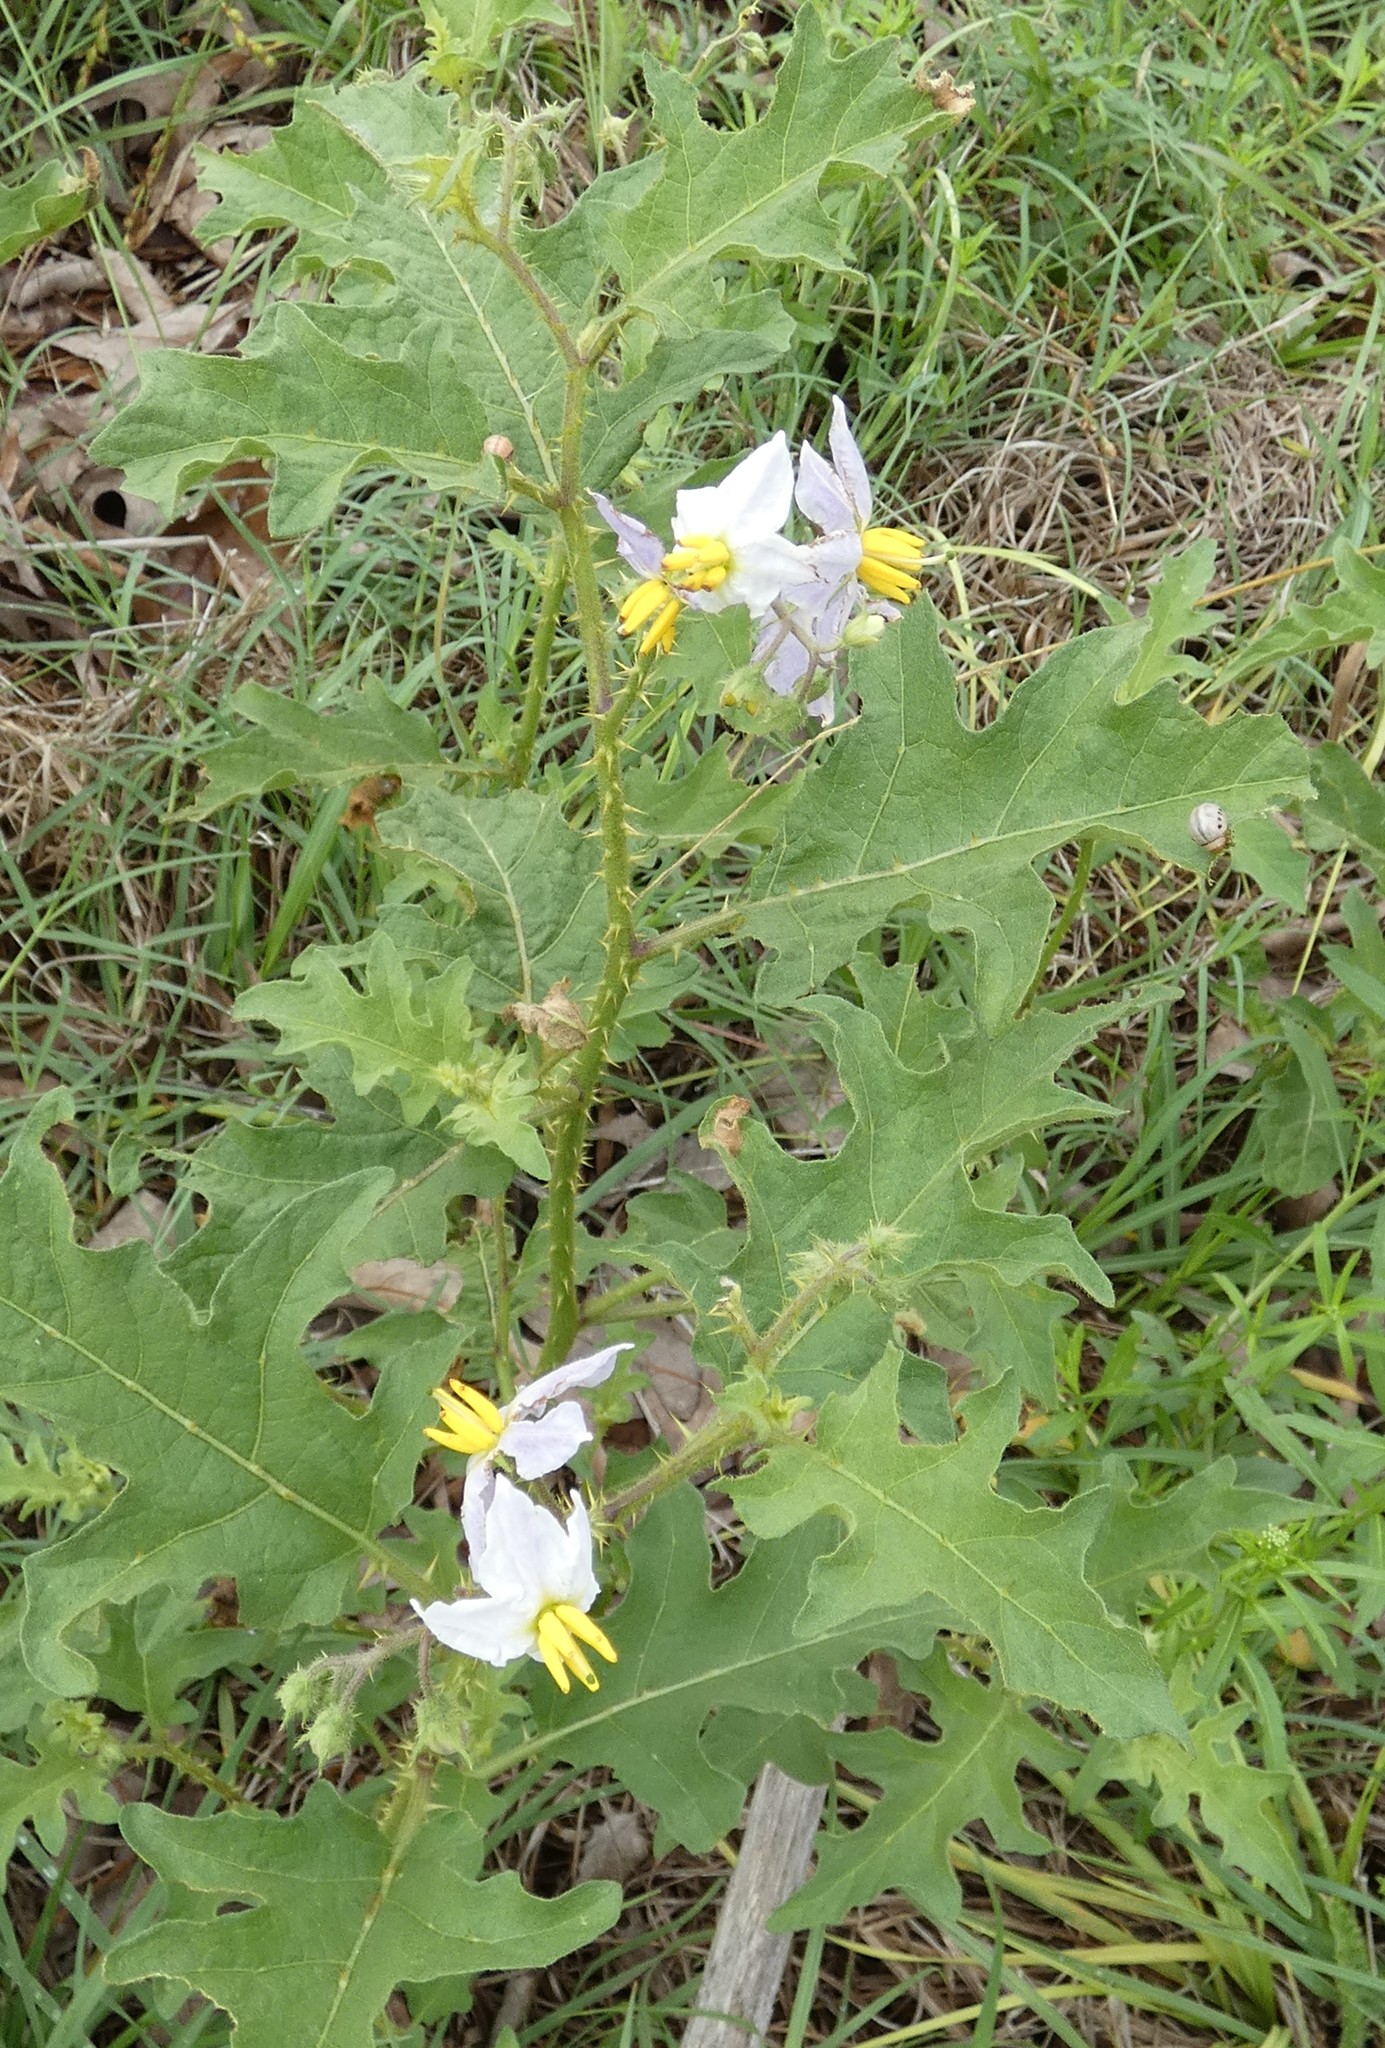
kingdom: Plantae
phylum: Tracheophyta
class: Magnoliopsida
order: Solanales
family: Solanaceae
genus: Solanum
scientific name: Solanum carolinense
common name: Horse-nettle
